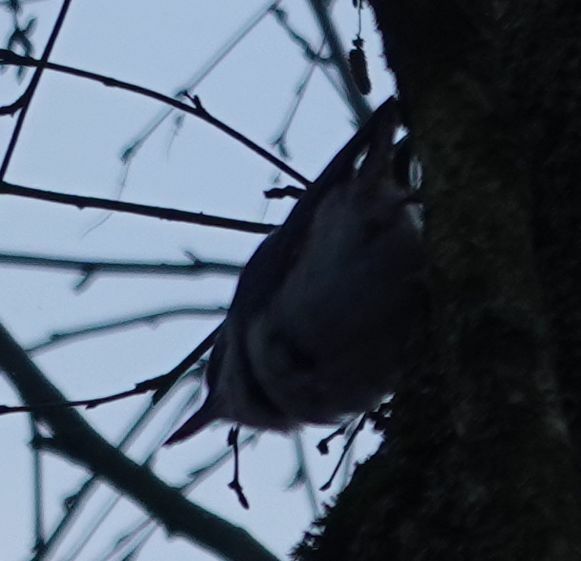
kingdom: Animalia
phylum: Chordata
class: Aves
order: Passeriformes
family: Sittidae
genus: Sitta
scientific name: Sitta europaea
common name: Eurasian nuthatch
